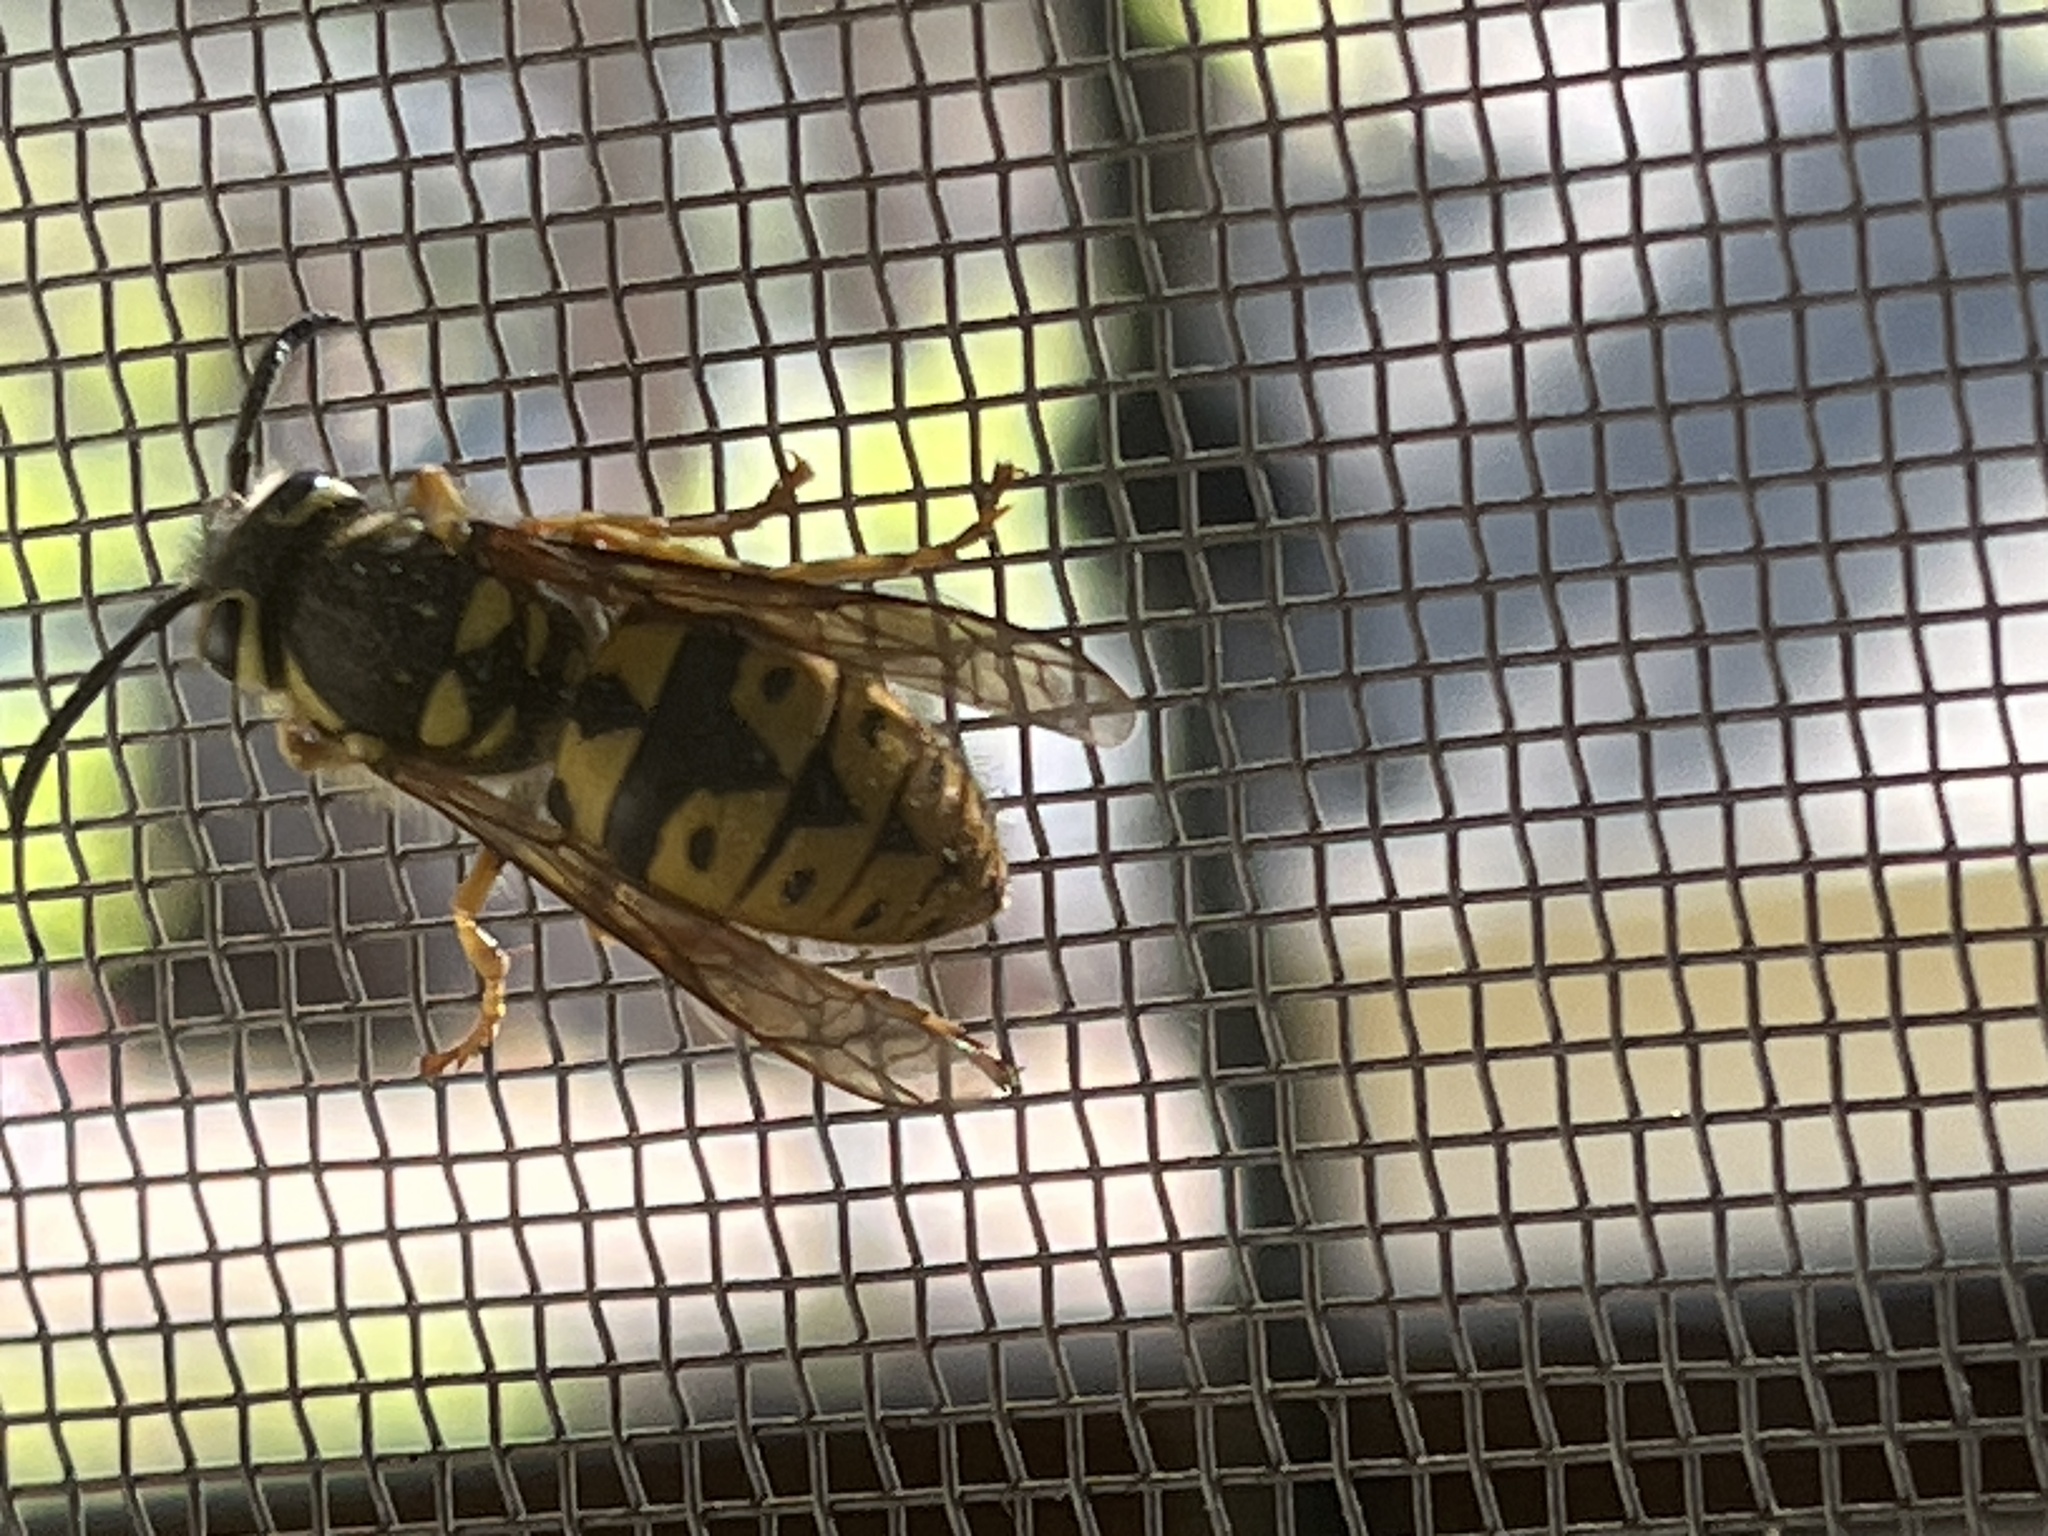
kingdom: Animalia
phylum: Arthropoda
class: Insecta
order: Hymenoptera
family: Vespidae
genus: Vespula
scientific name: Vespula pensylvanica
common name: Western yellowjacket
